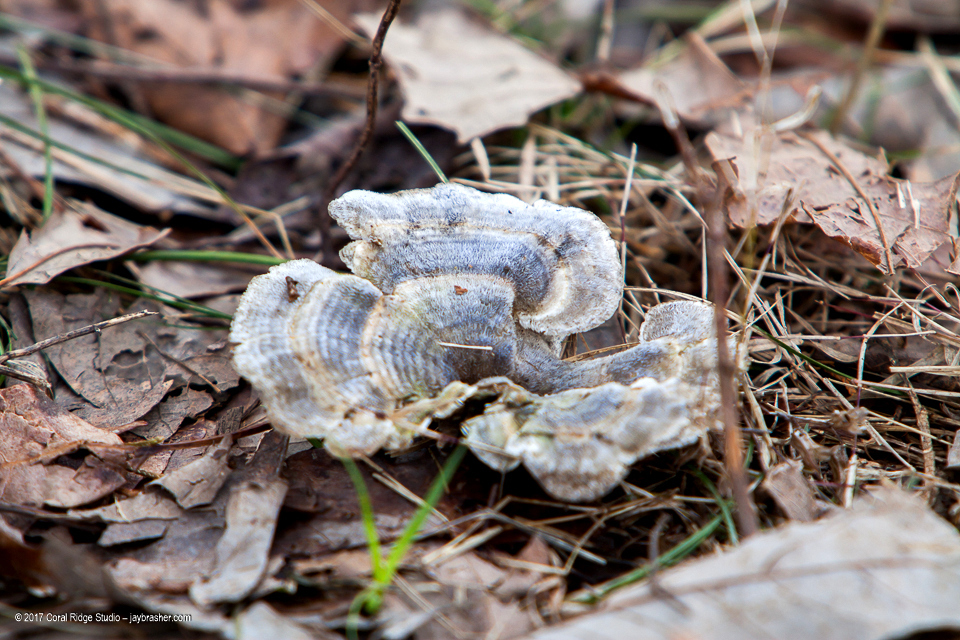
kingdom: Fungi
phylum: Basidiomycota
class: Agaricomycetes
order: Polyporales
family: Polyporaceae
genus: Trametes
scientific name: Trametes versicolor
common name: Turkeytail
